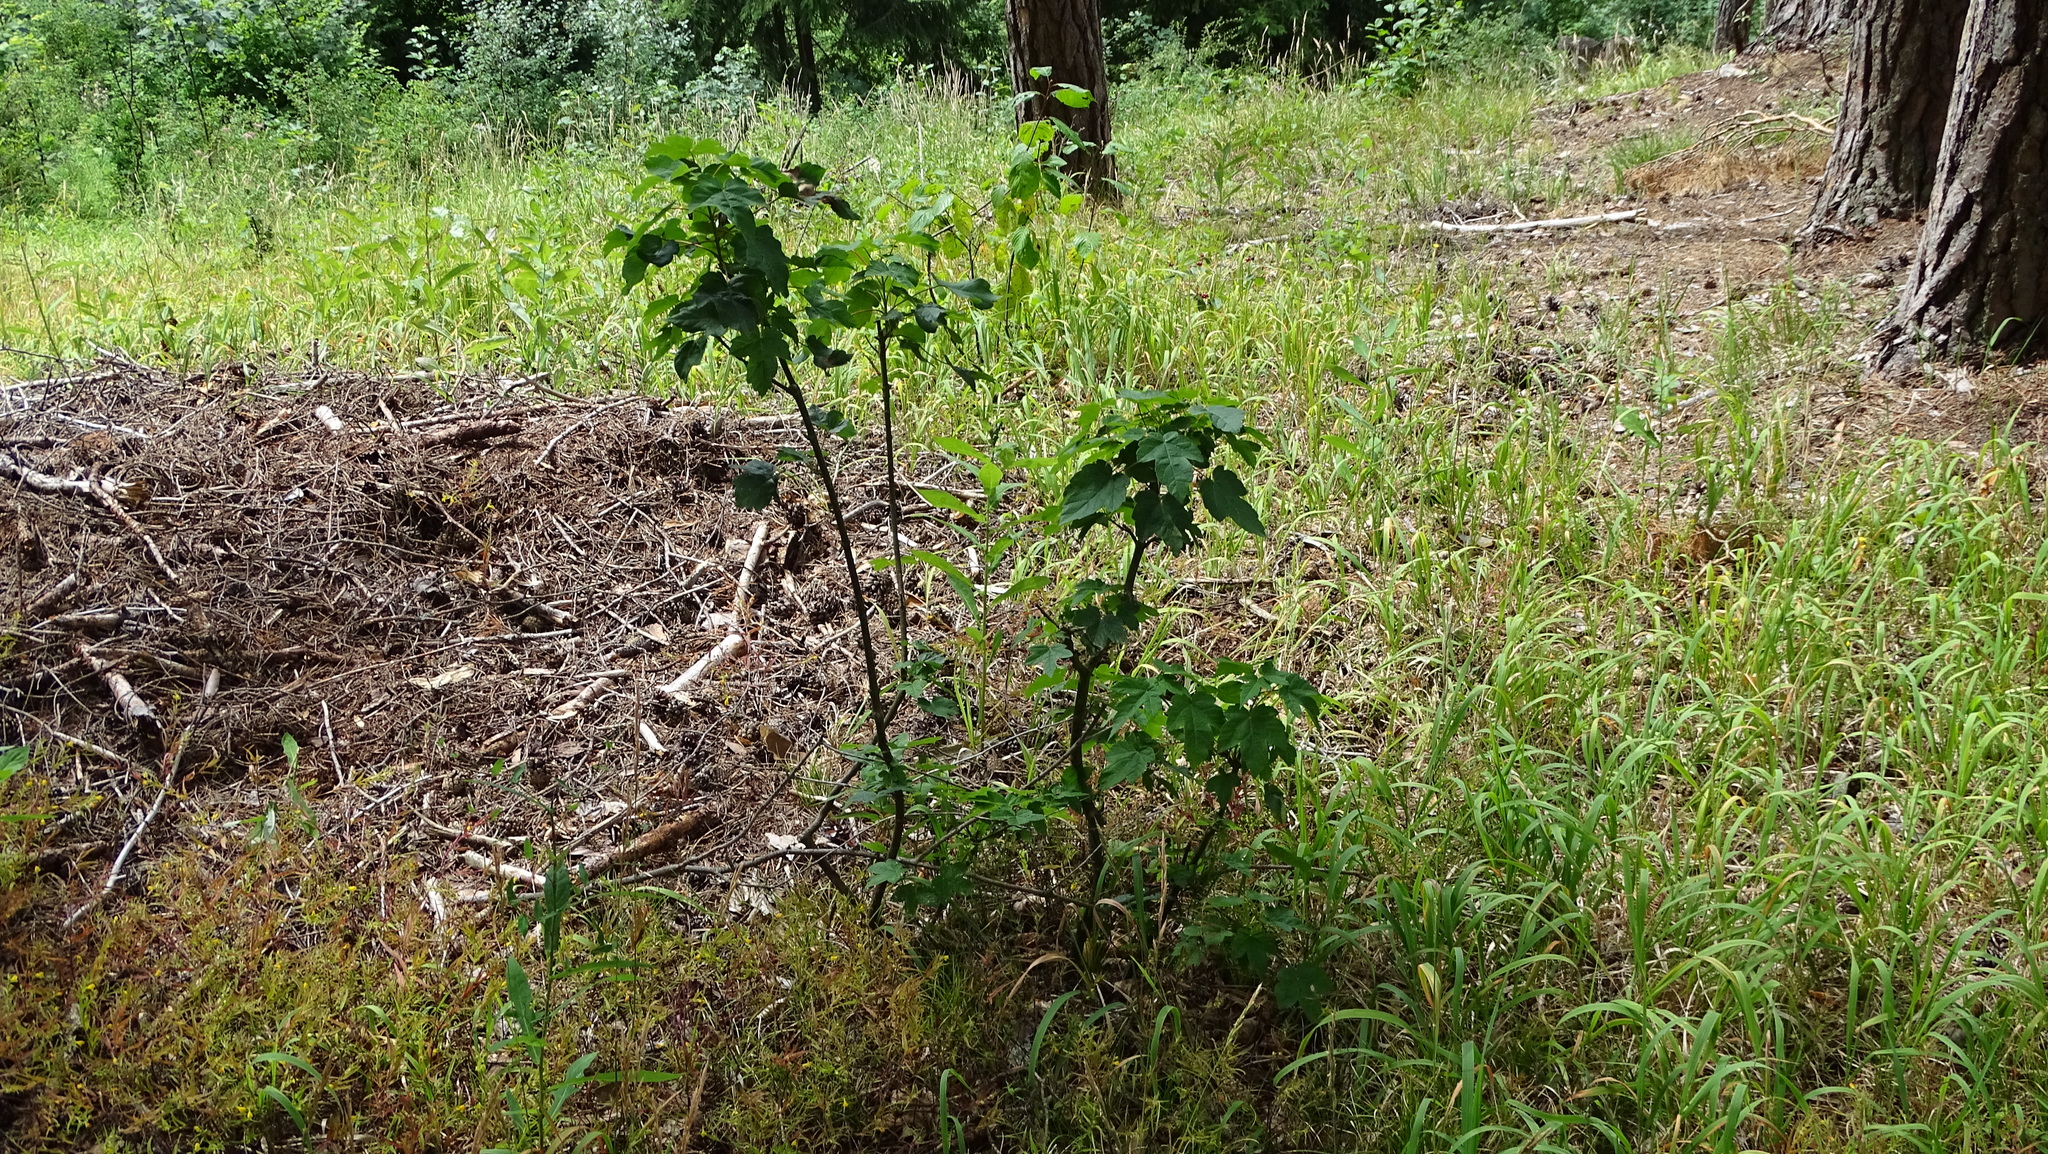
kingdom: Plantae
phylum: Tracheophyta
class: Magnoliopsida
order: Sapindales
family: Sapindaceae
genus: Acer
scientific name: Acer pseudoplatanus
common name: Sycamore
